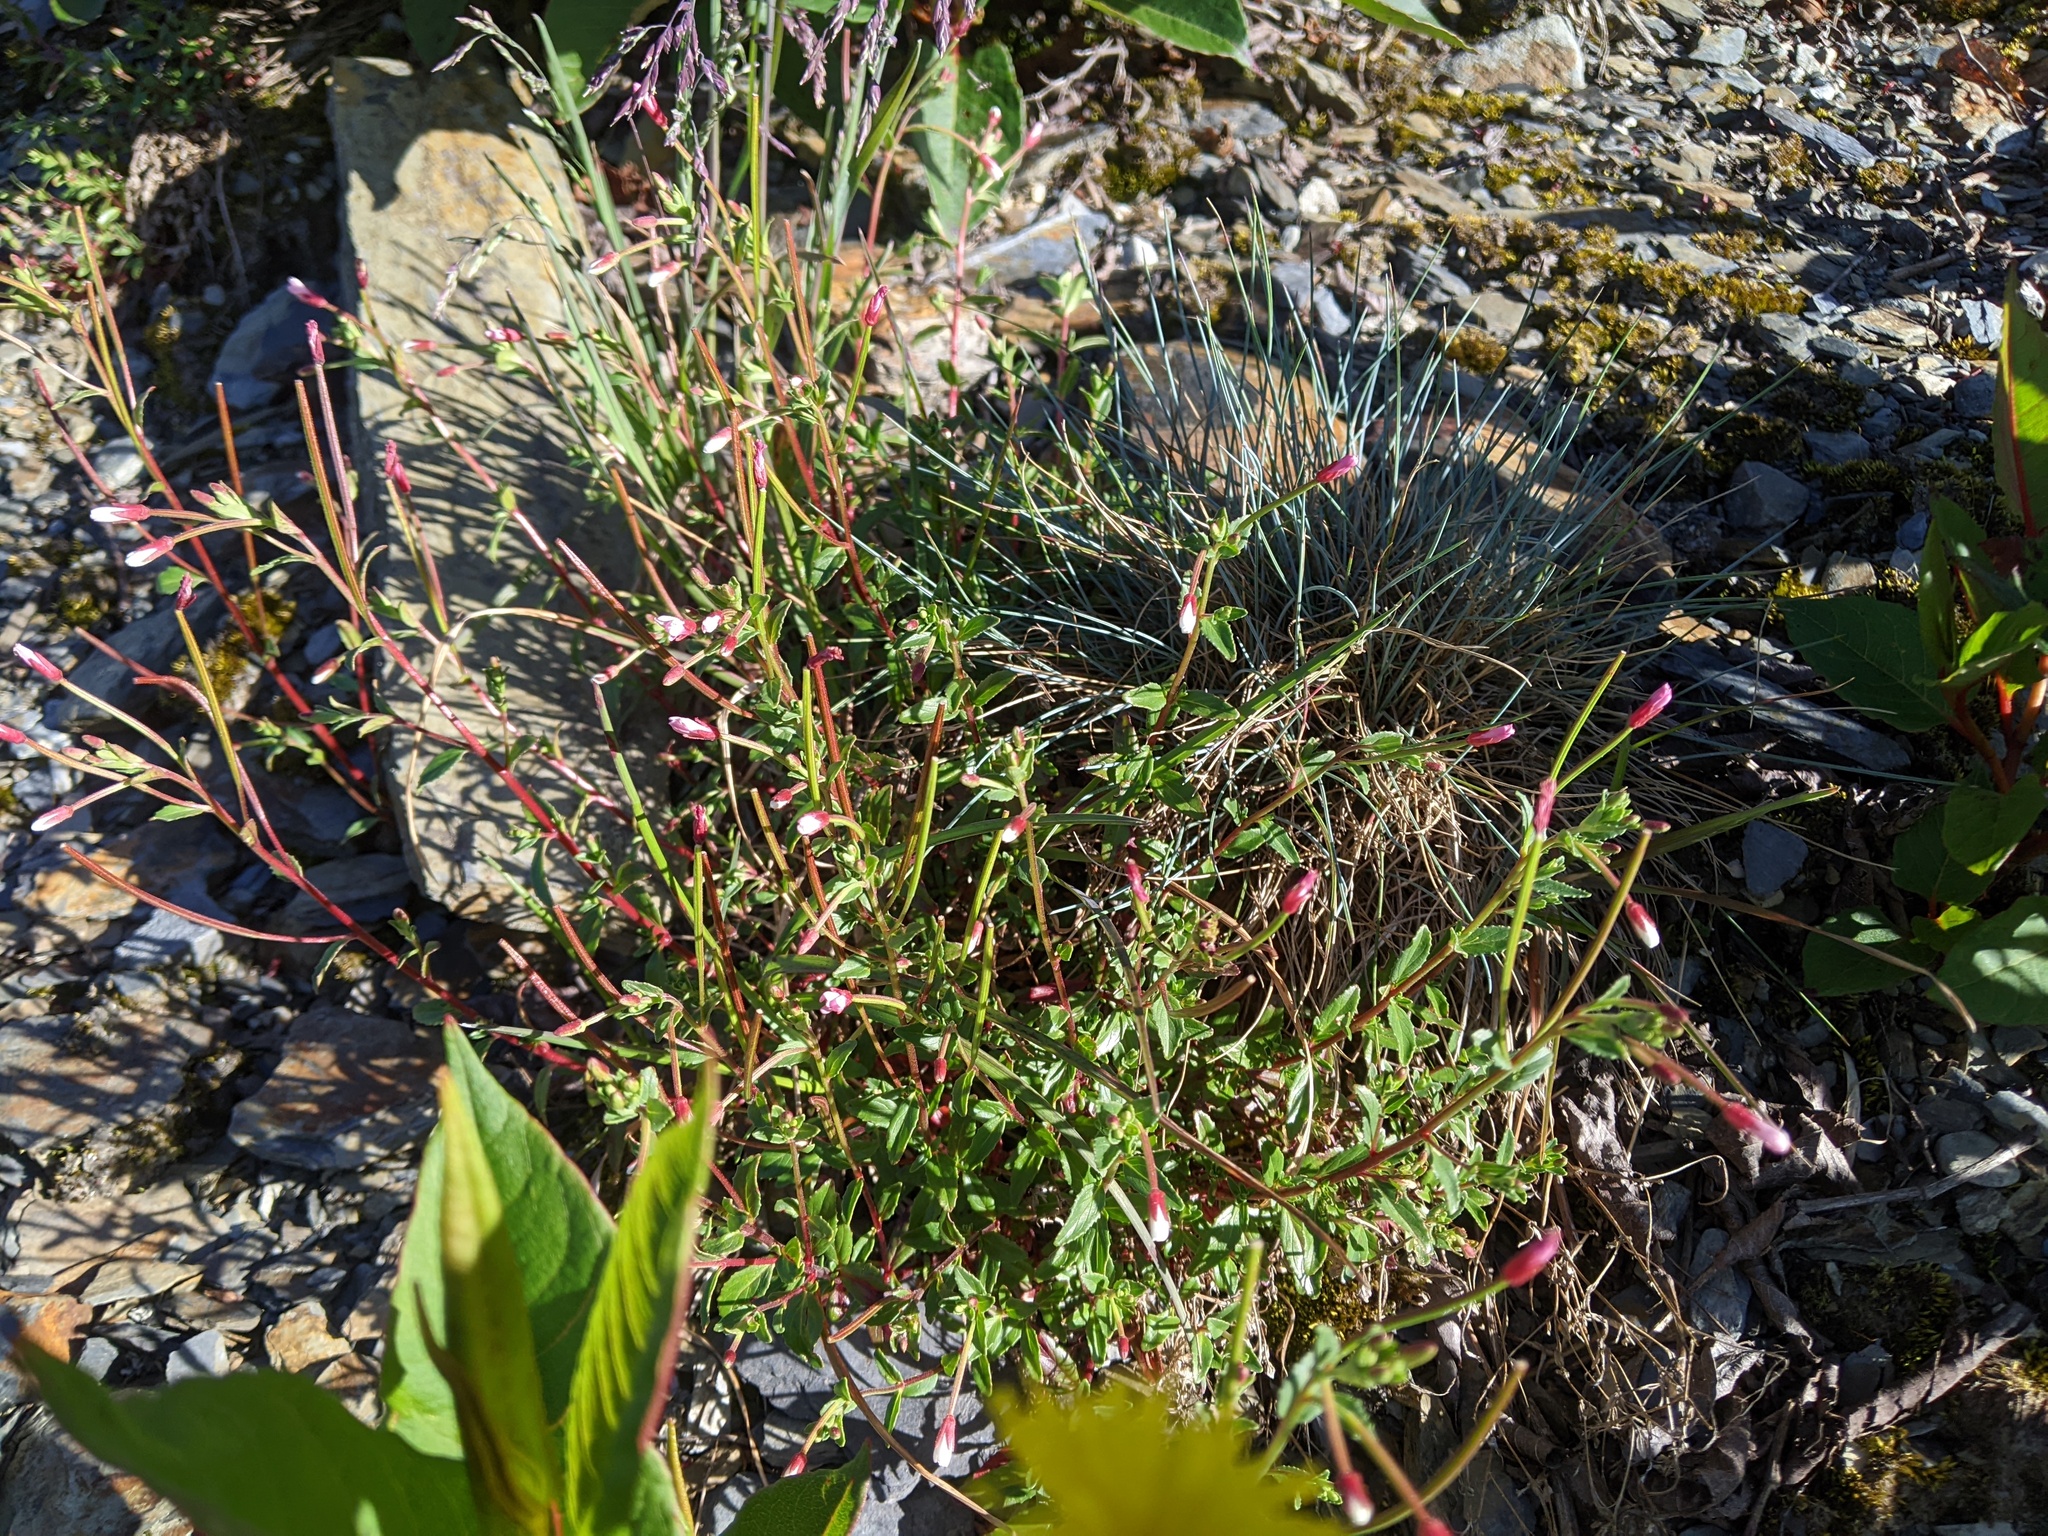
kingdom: Plantae
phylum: Tracheophyta
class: Magnoliopsida
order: Myrtales
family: Onagraceae
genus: Epilobium
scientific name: Epilobium hohuanense
